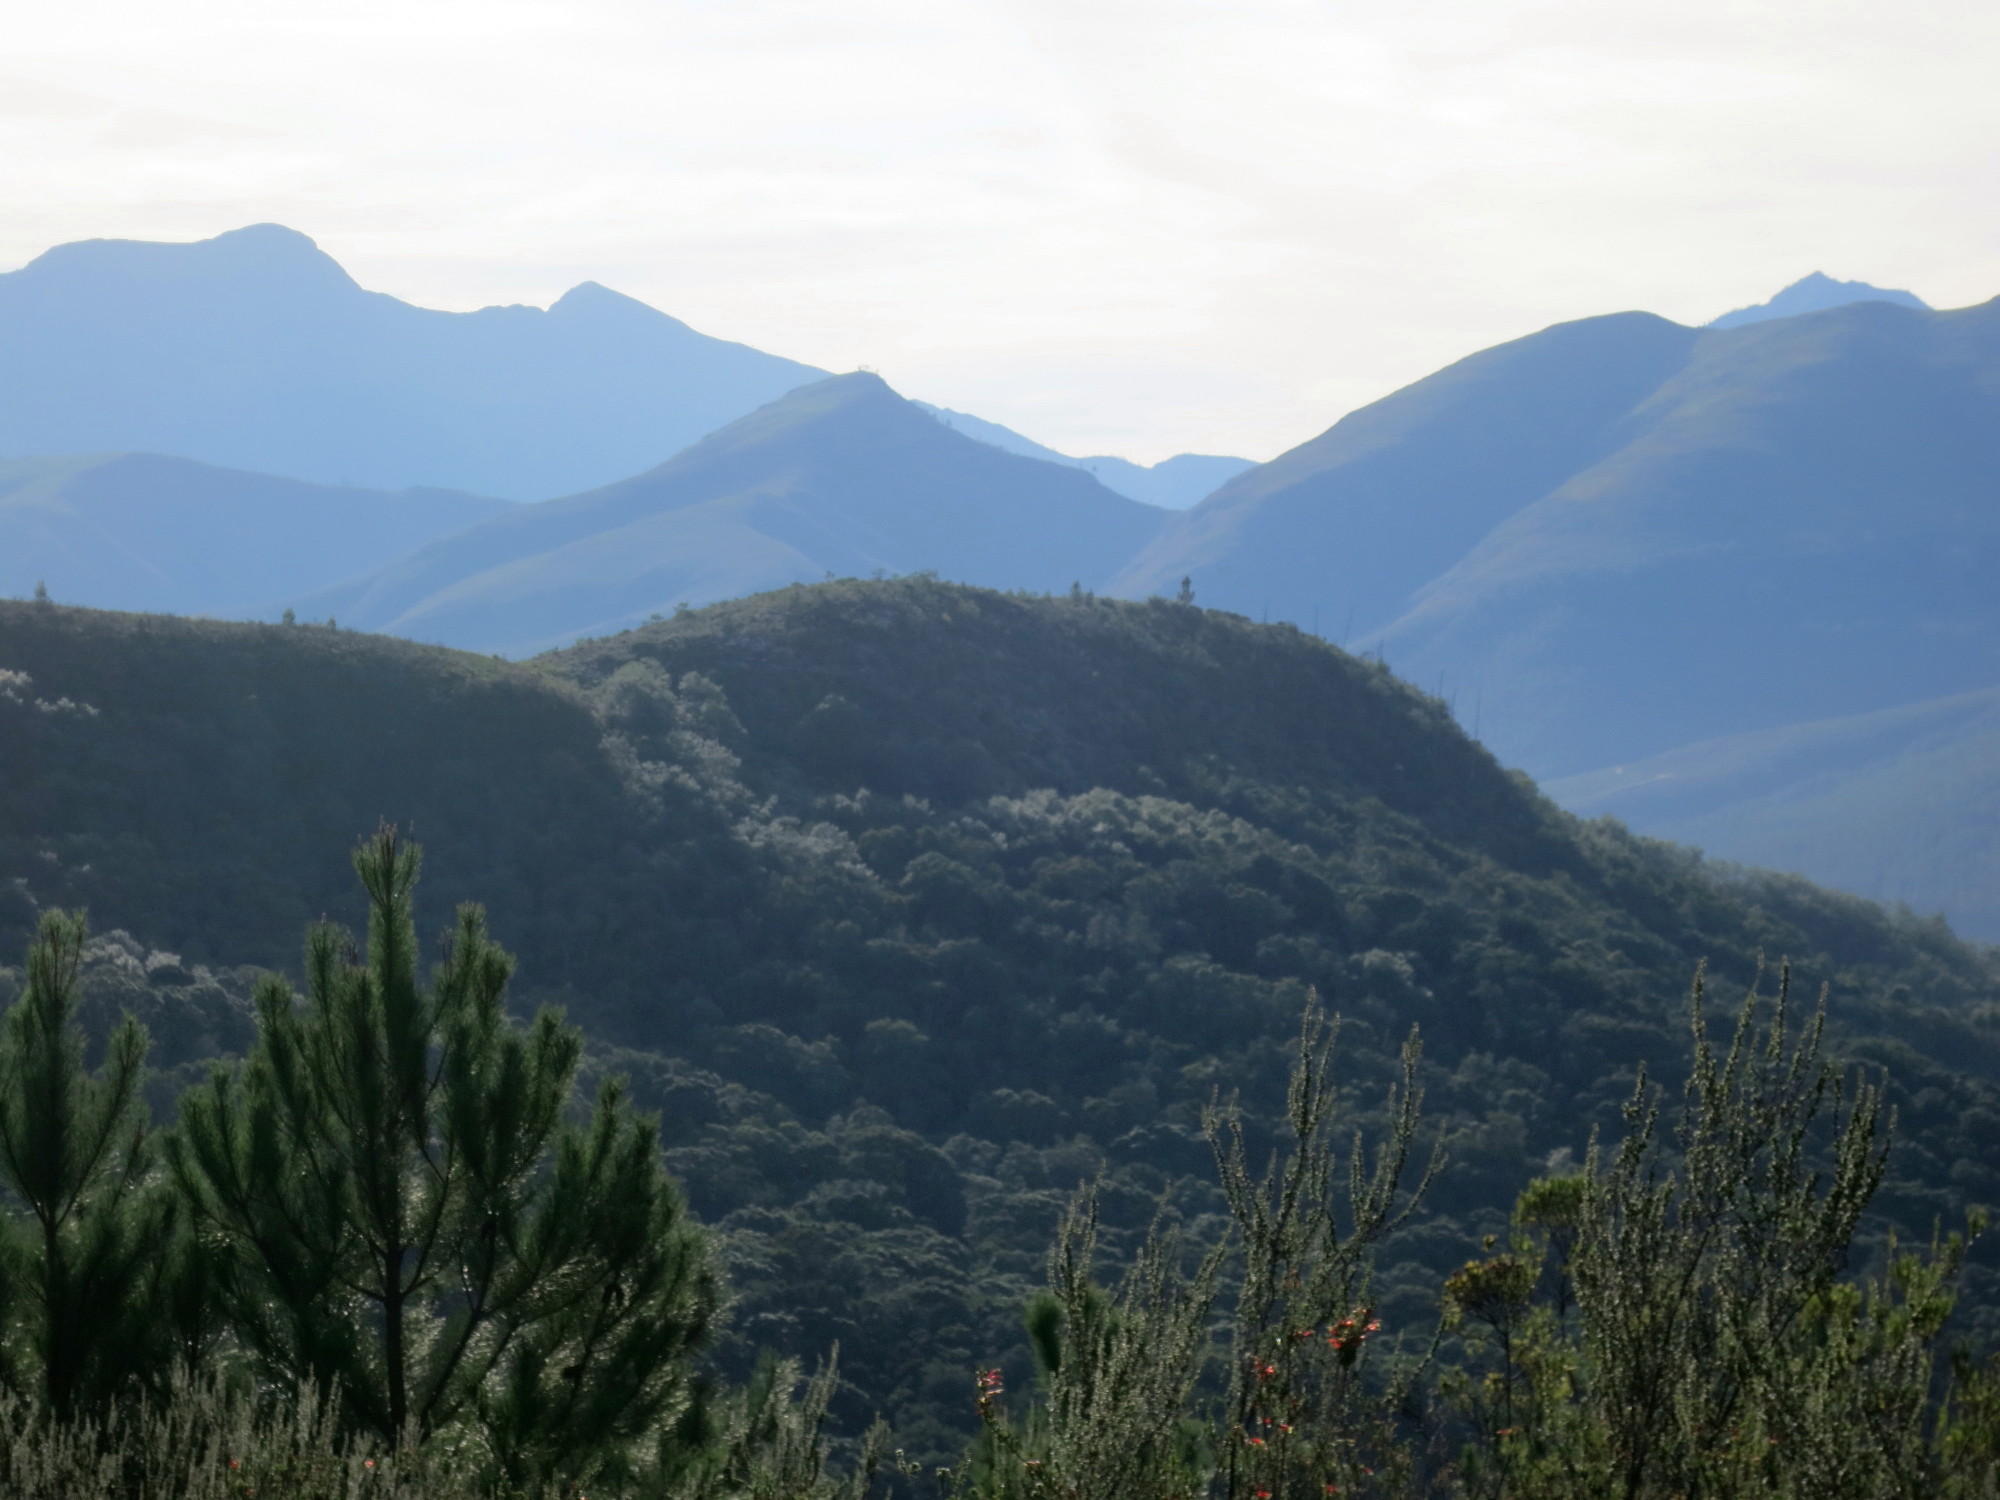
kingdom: Plantae
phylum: Tracheophyta
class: Pinopsida
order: Pinales
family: Pinaceae
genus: Pinus
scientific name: Pinus radiata
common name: Monterey pine
